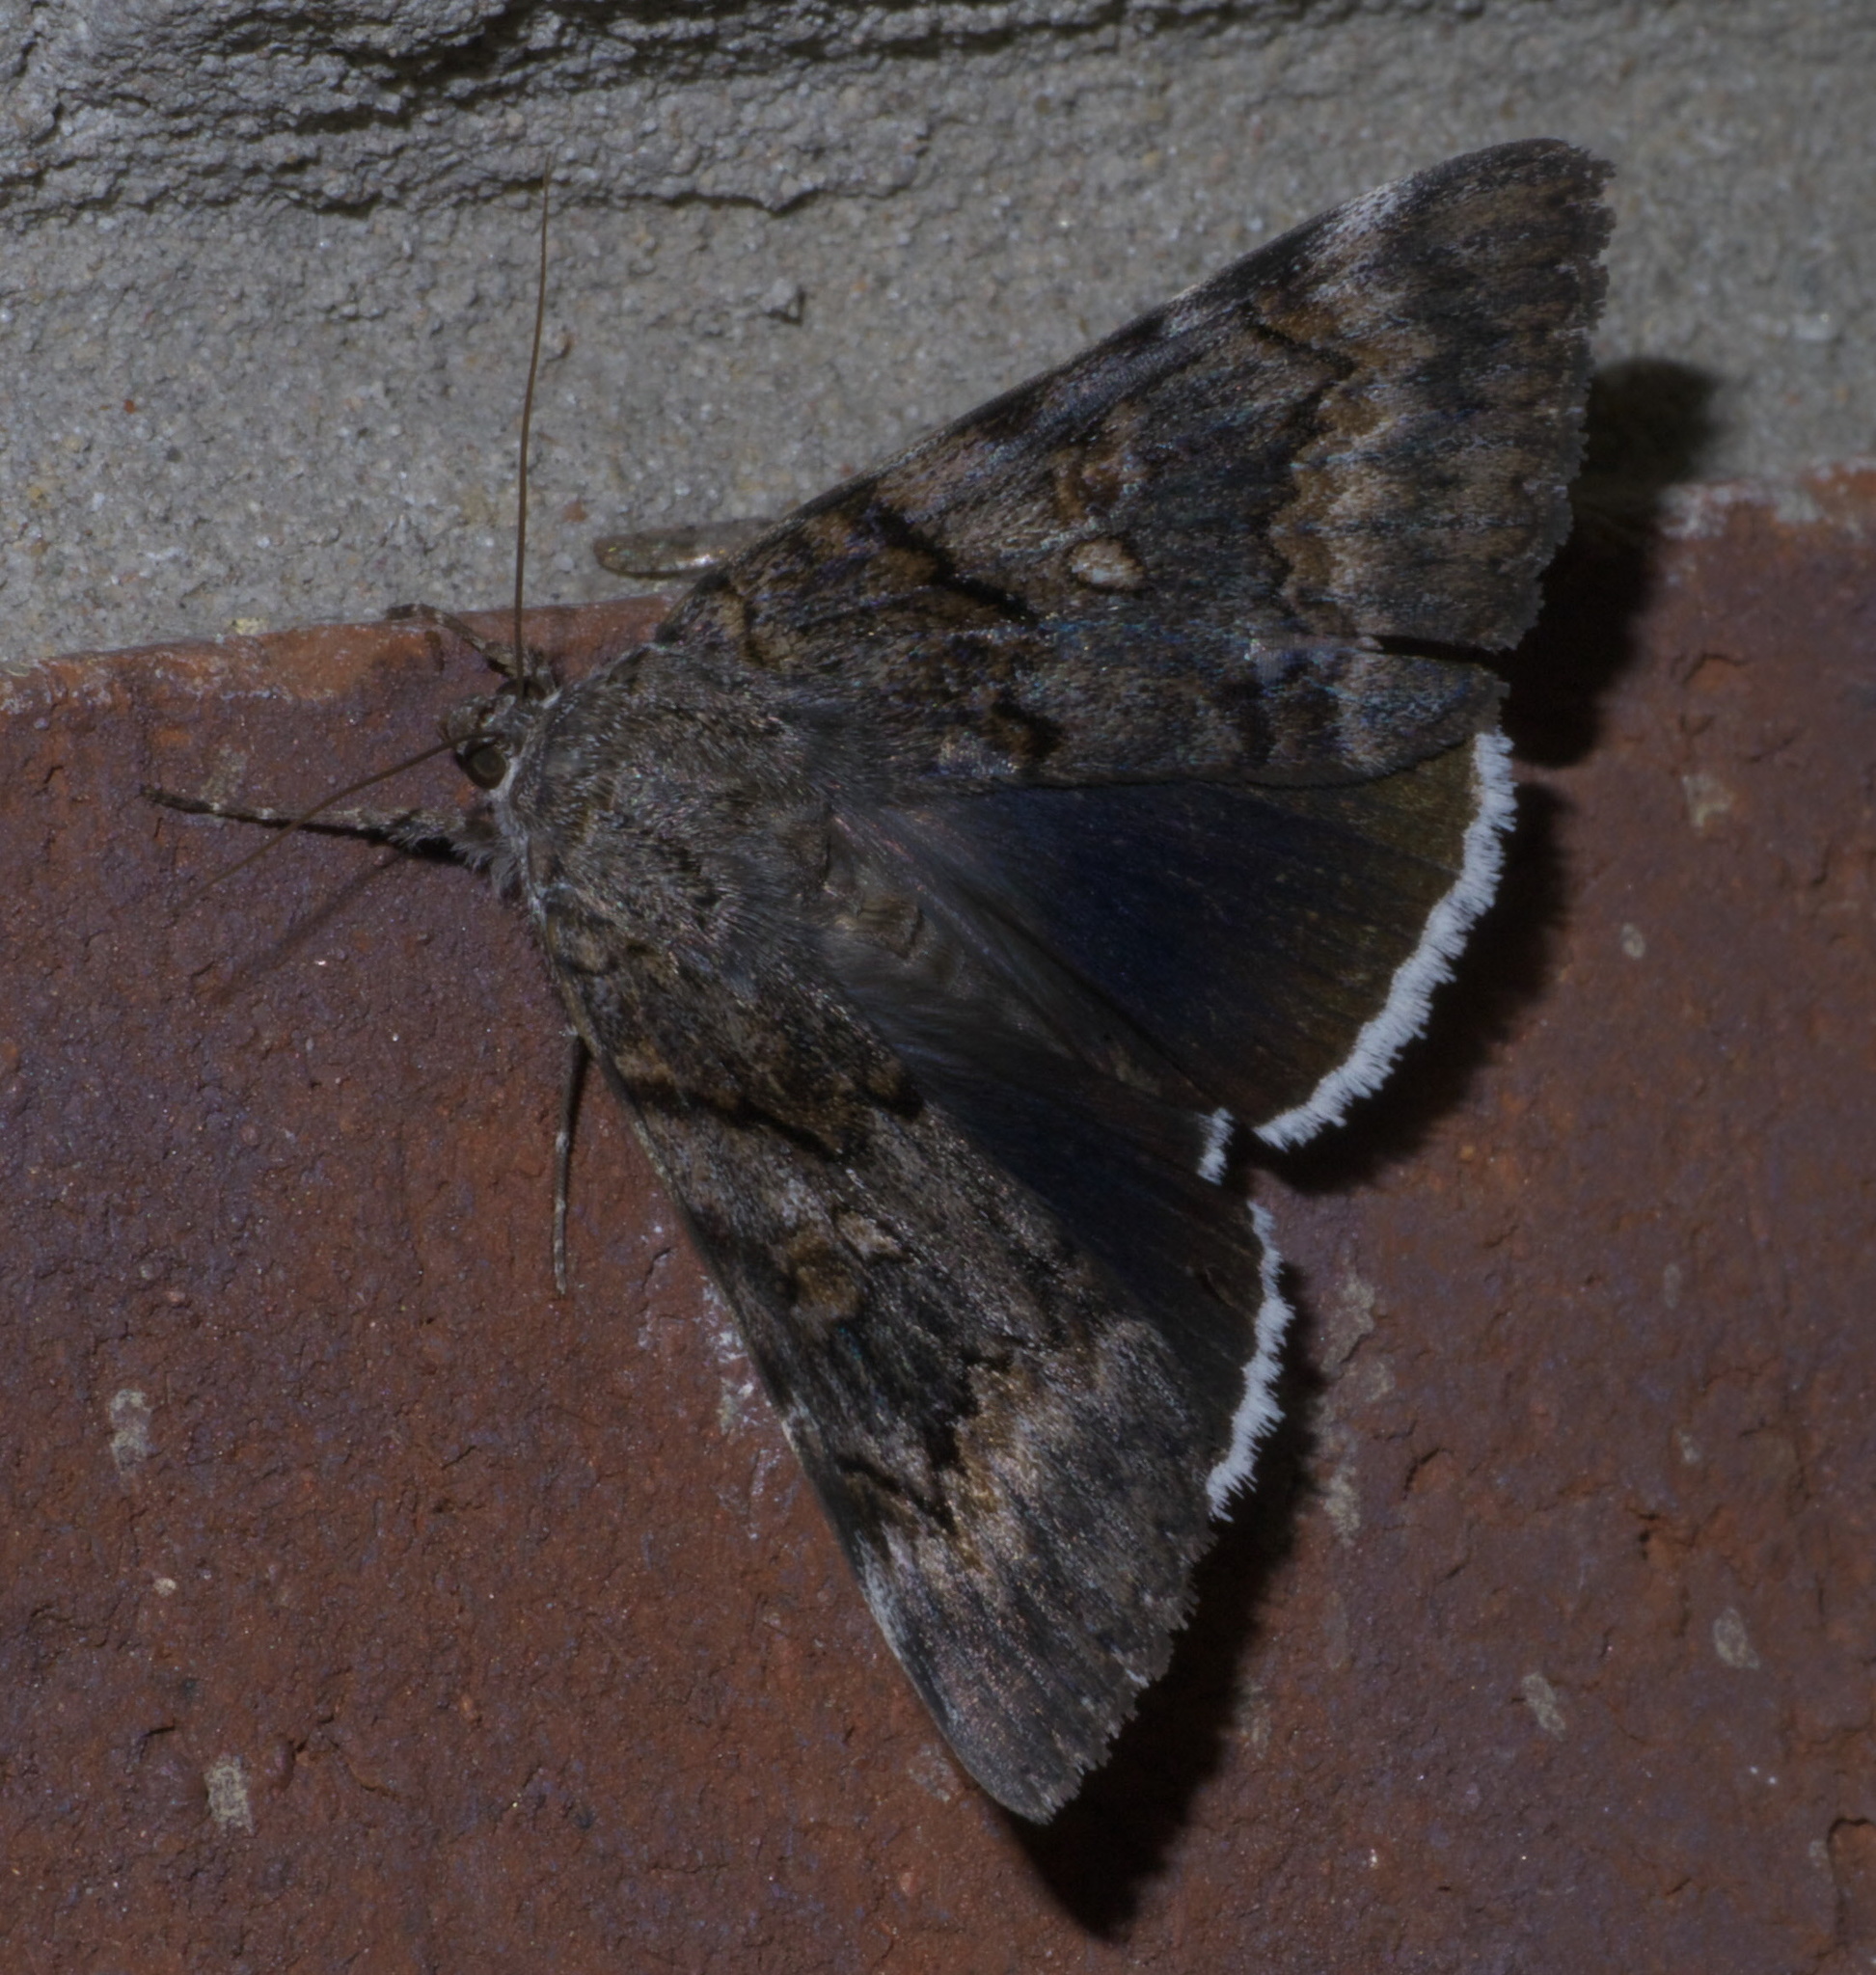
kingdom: Animalia
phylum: Arthropoda
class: Insecta
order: Lepidoptera
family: Erebidae
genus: Catocala
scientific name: Catocala epione
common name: Epione underwing
